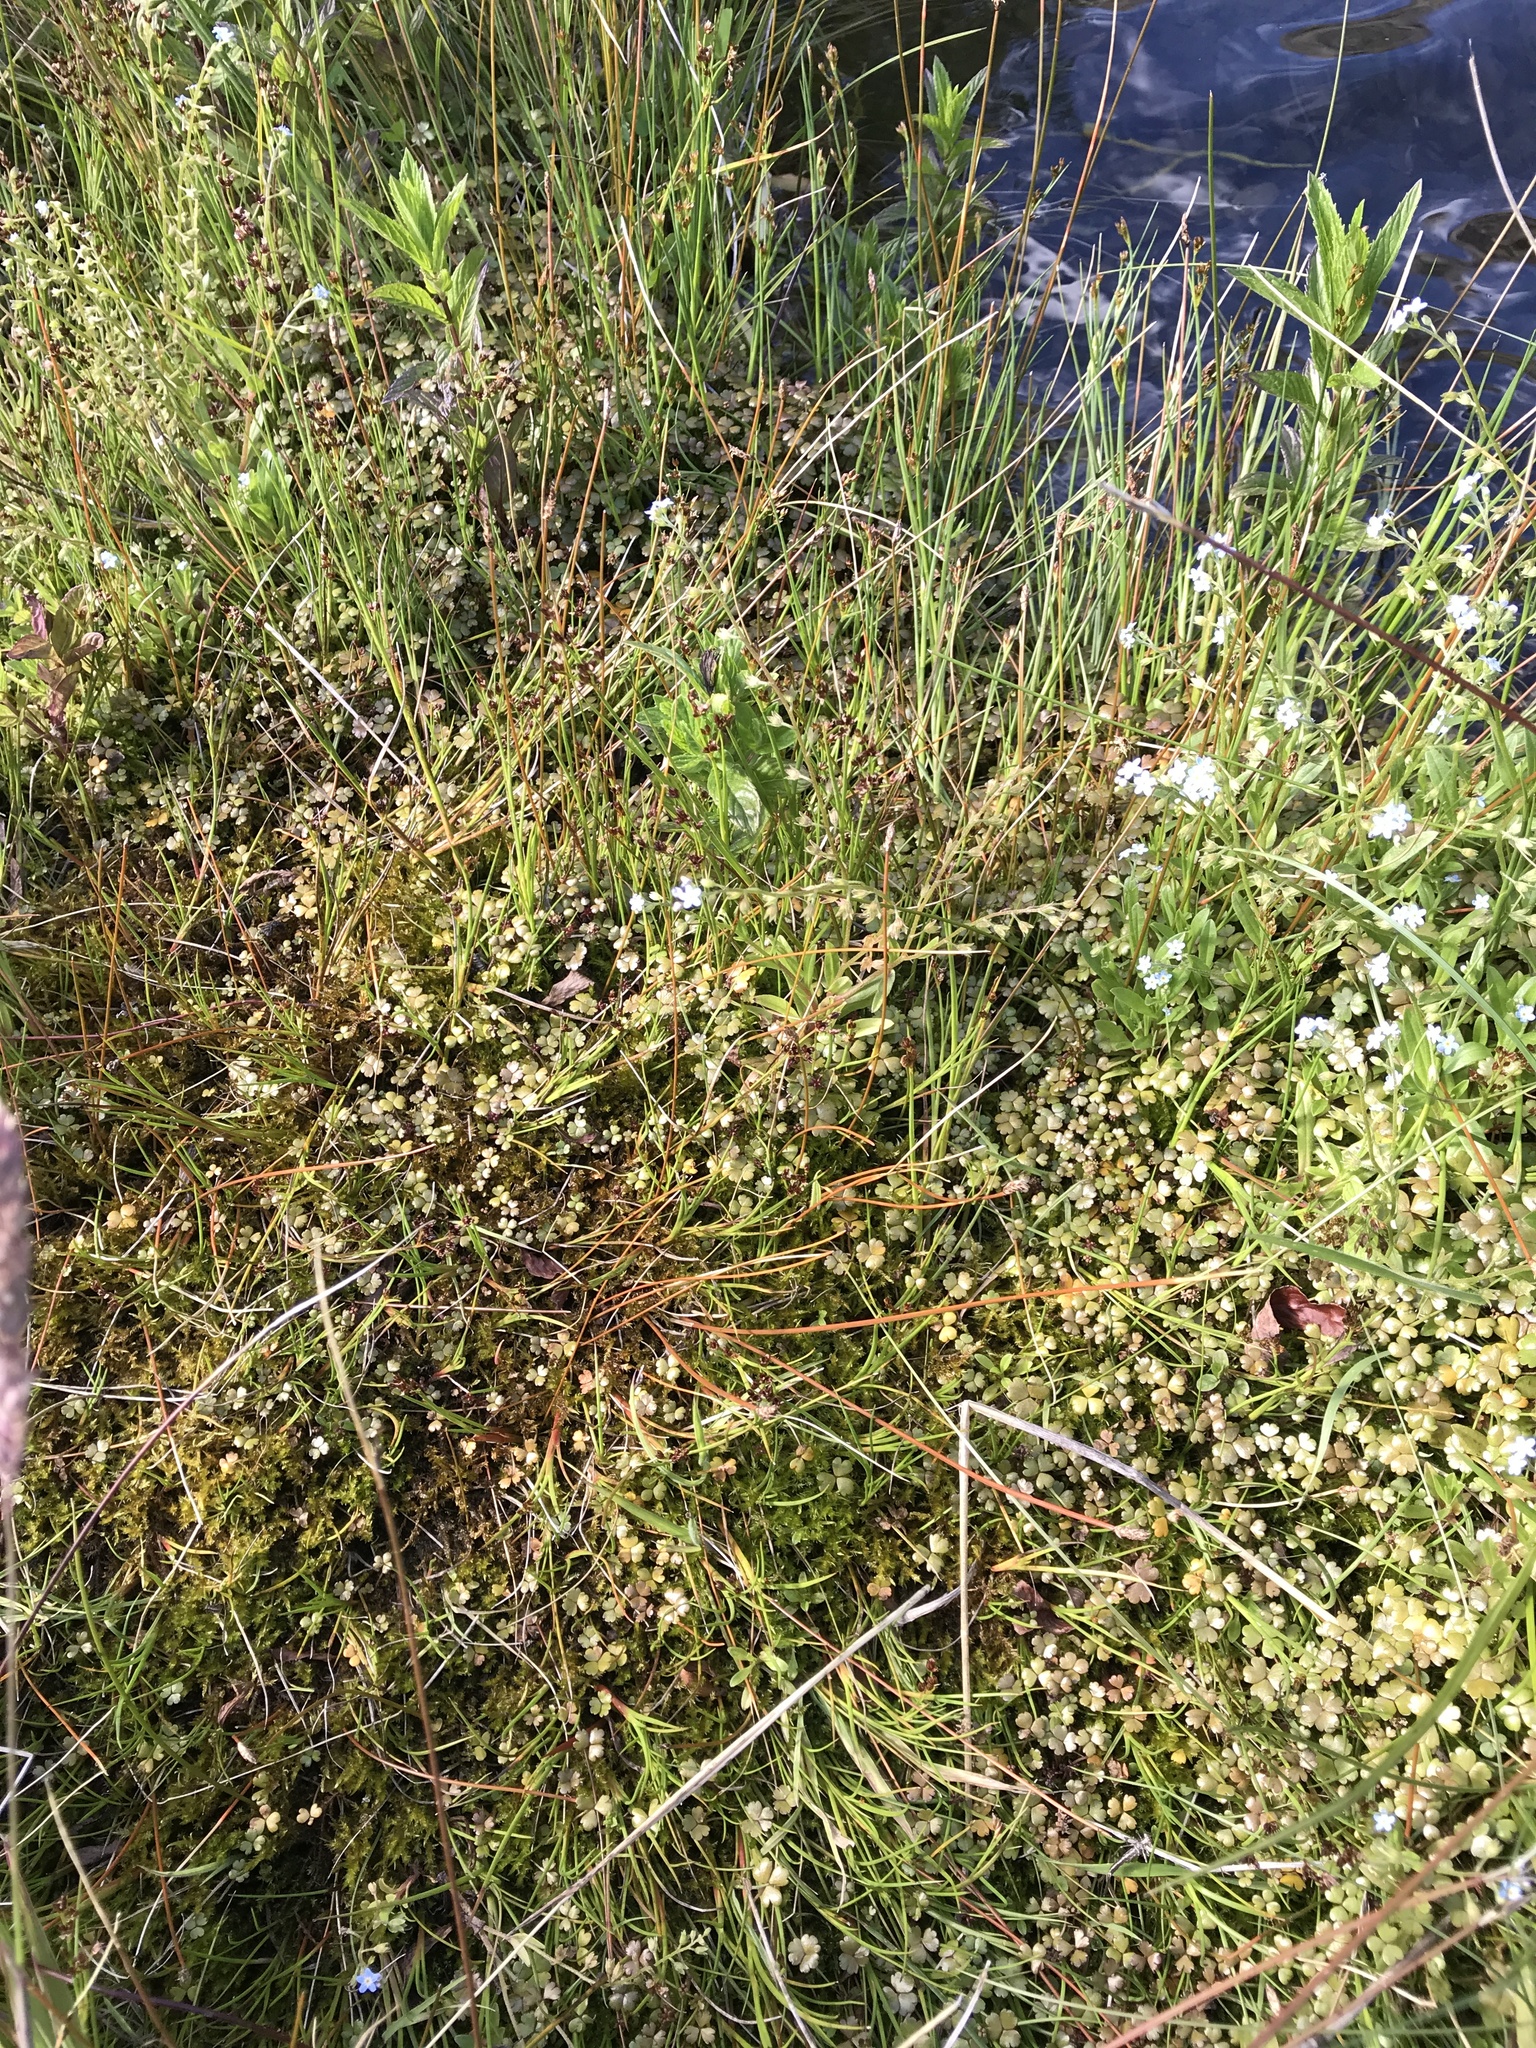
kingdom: Plantae
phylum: Tracheophyta
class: Magnoliopsida
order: Apiales
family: Araliaceae
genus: Hydrocotyle
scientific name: Hydrocotyle sulcata
